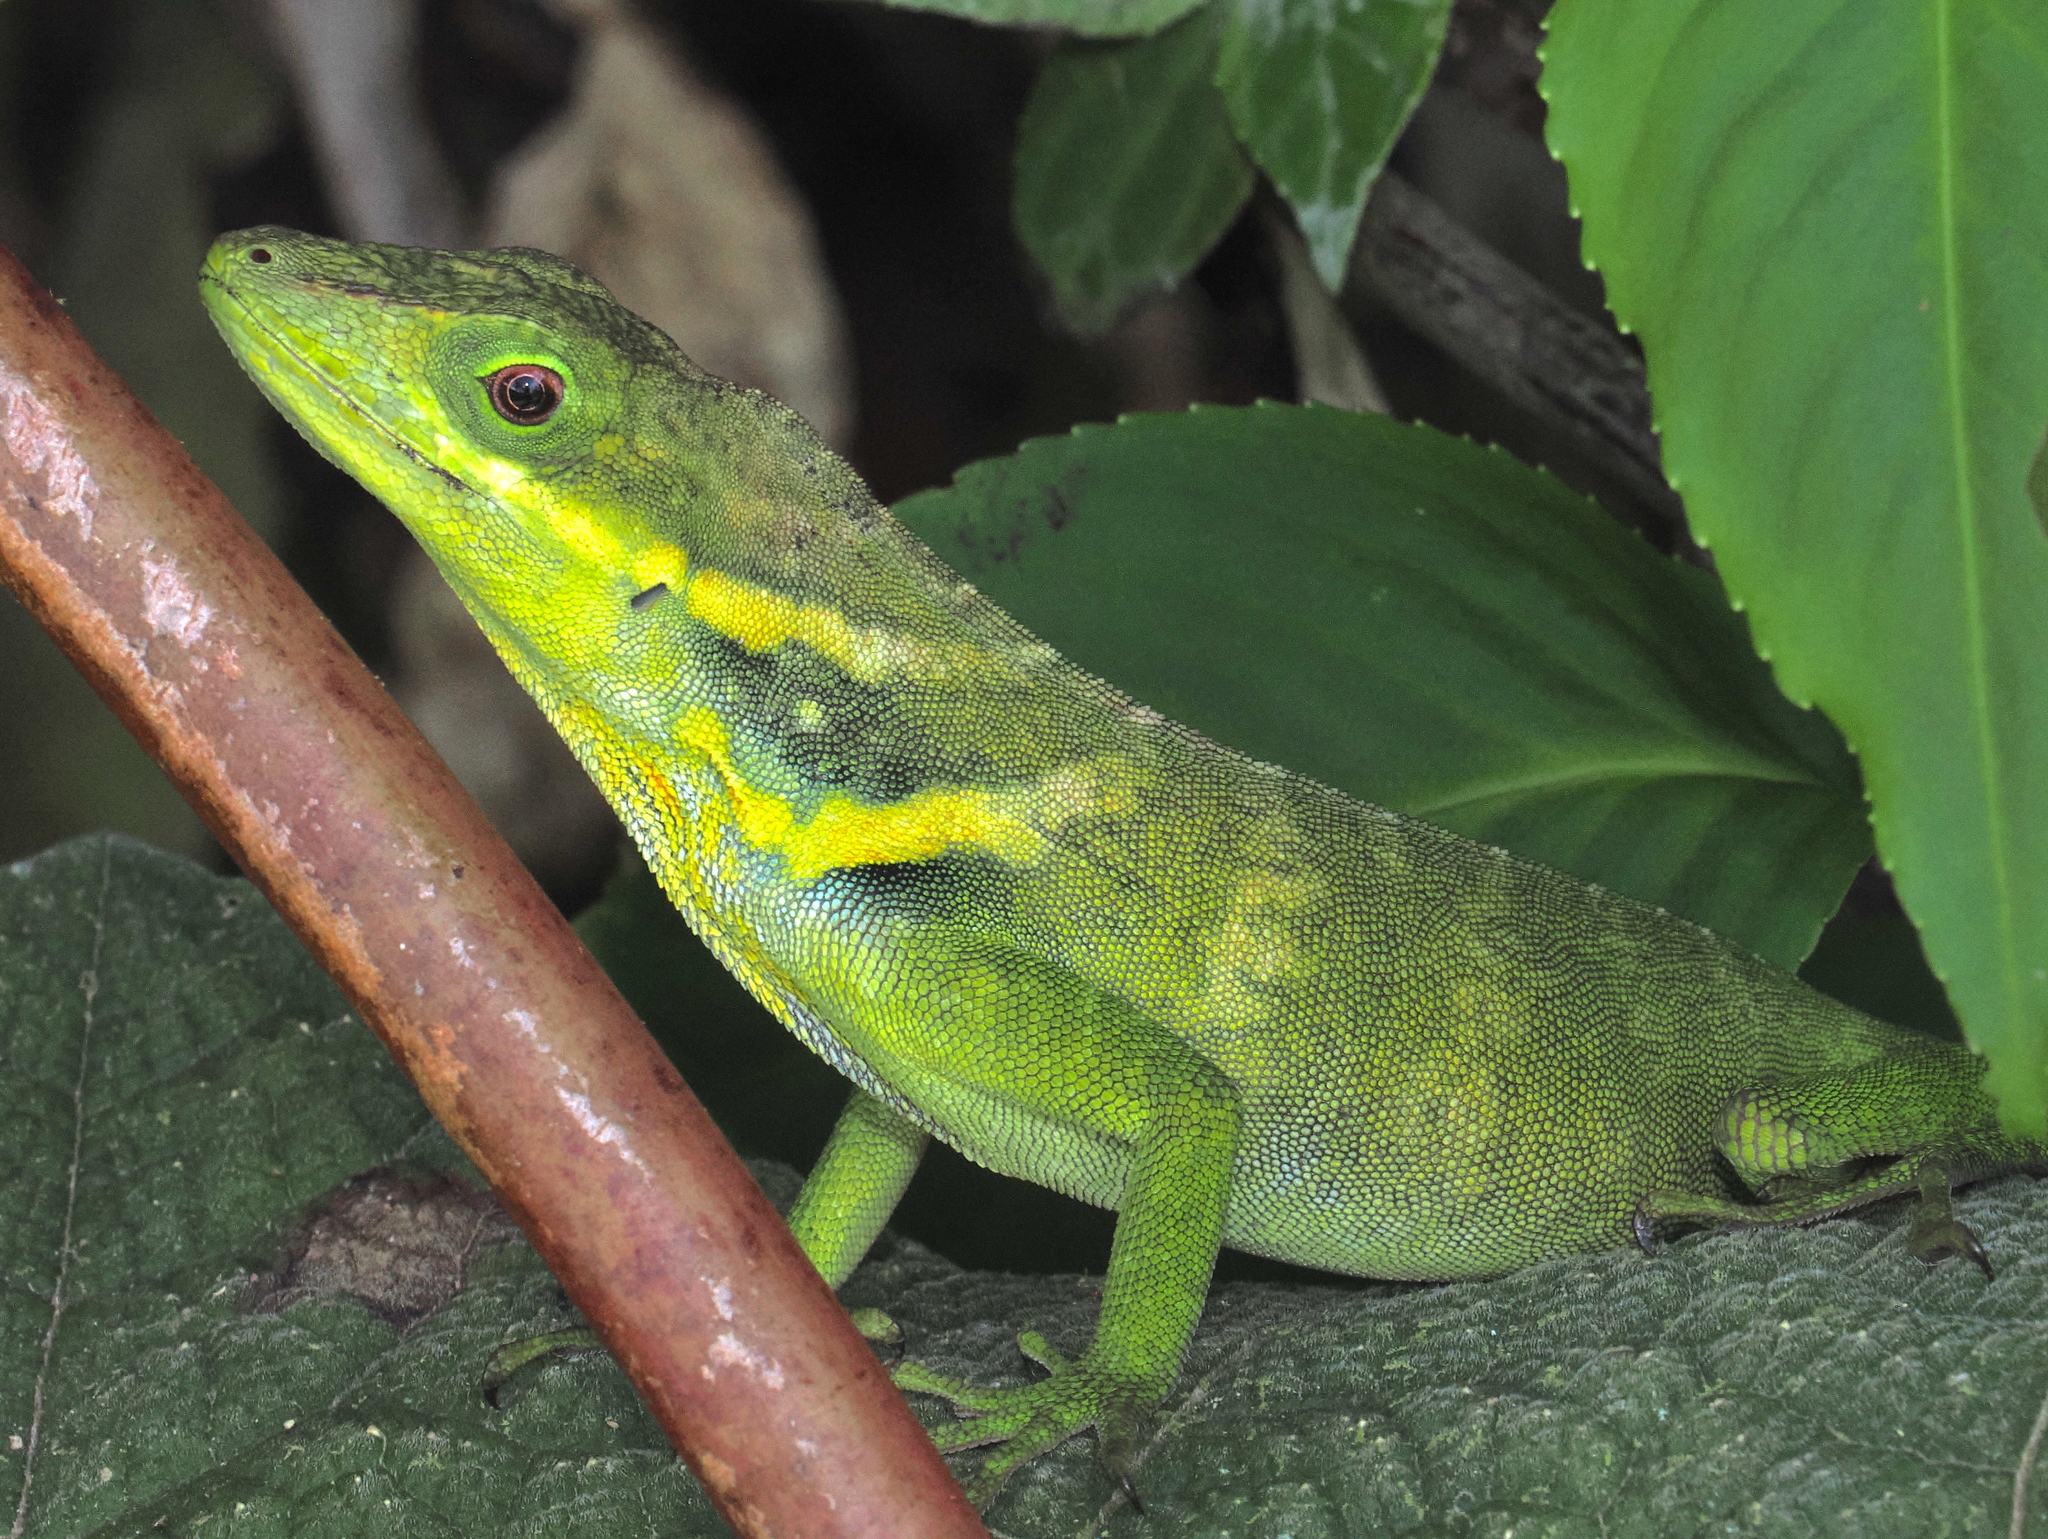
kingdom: Animalia
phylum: Chordata
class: Squamata
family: Dactyloidae
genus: Anolis
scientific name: Anolis danieli
